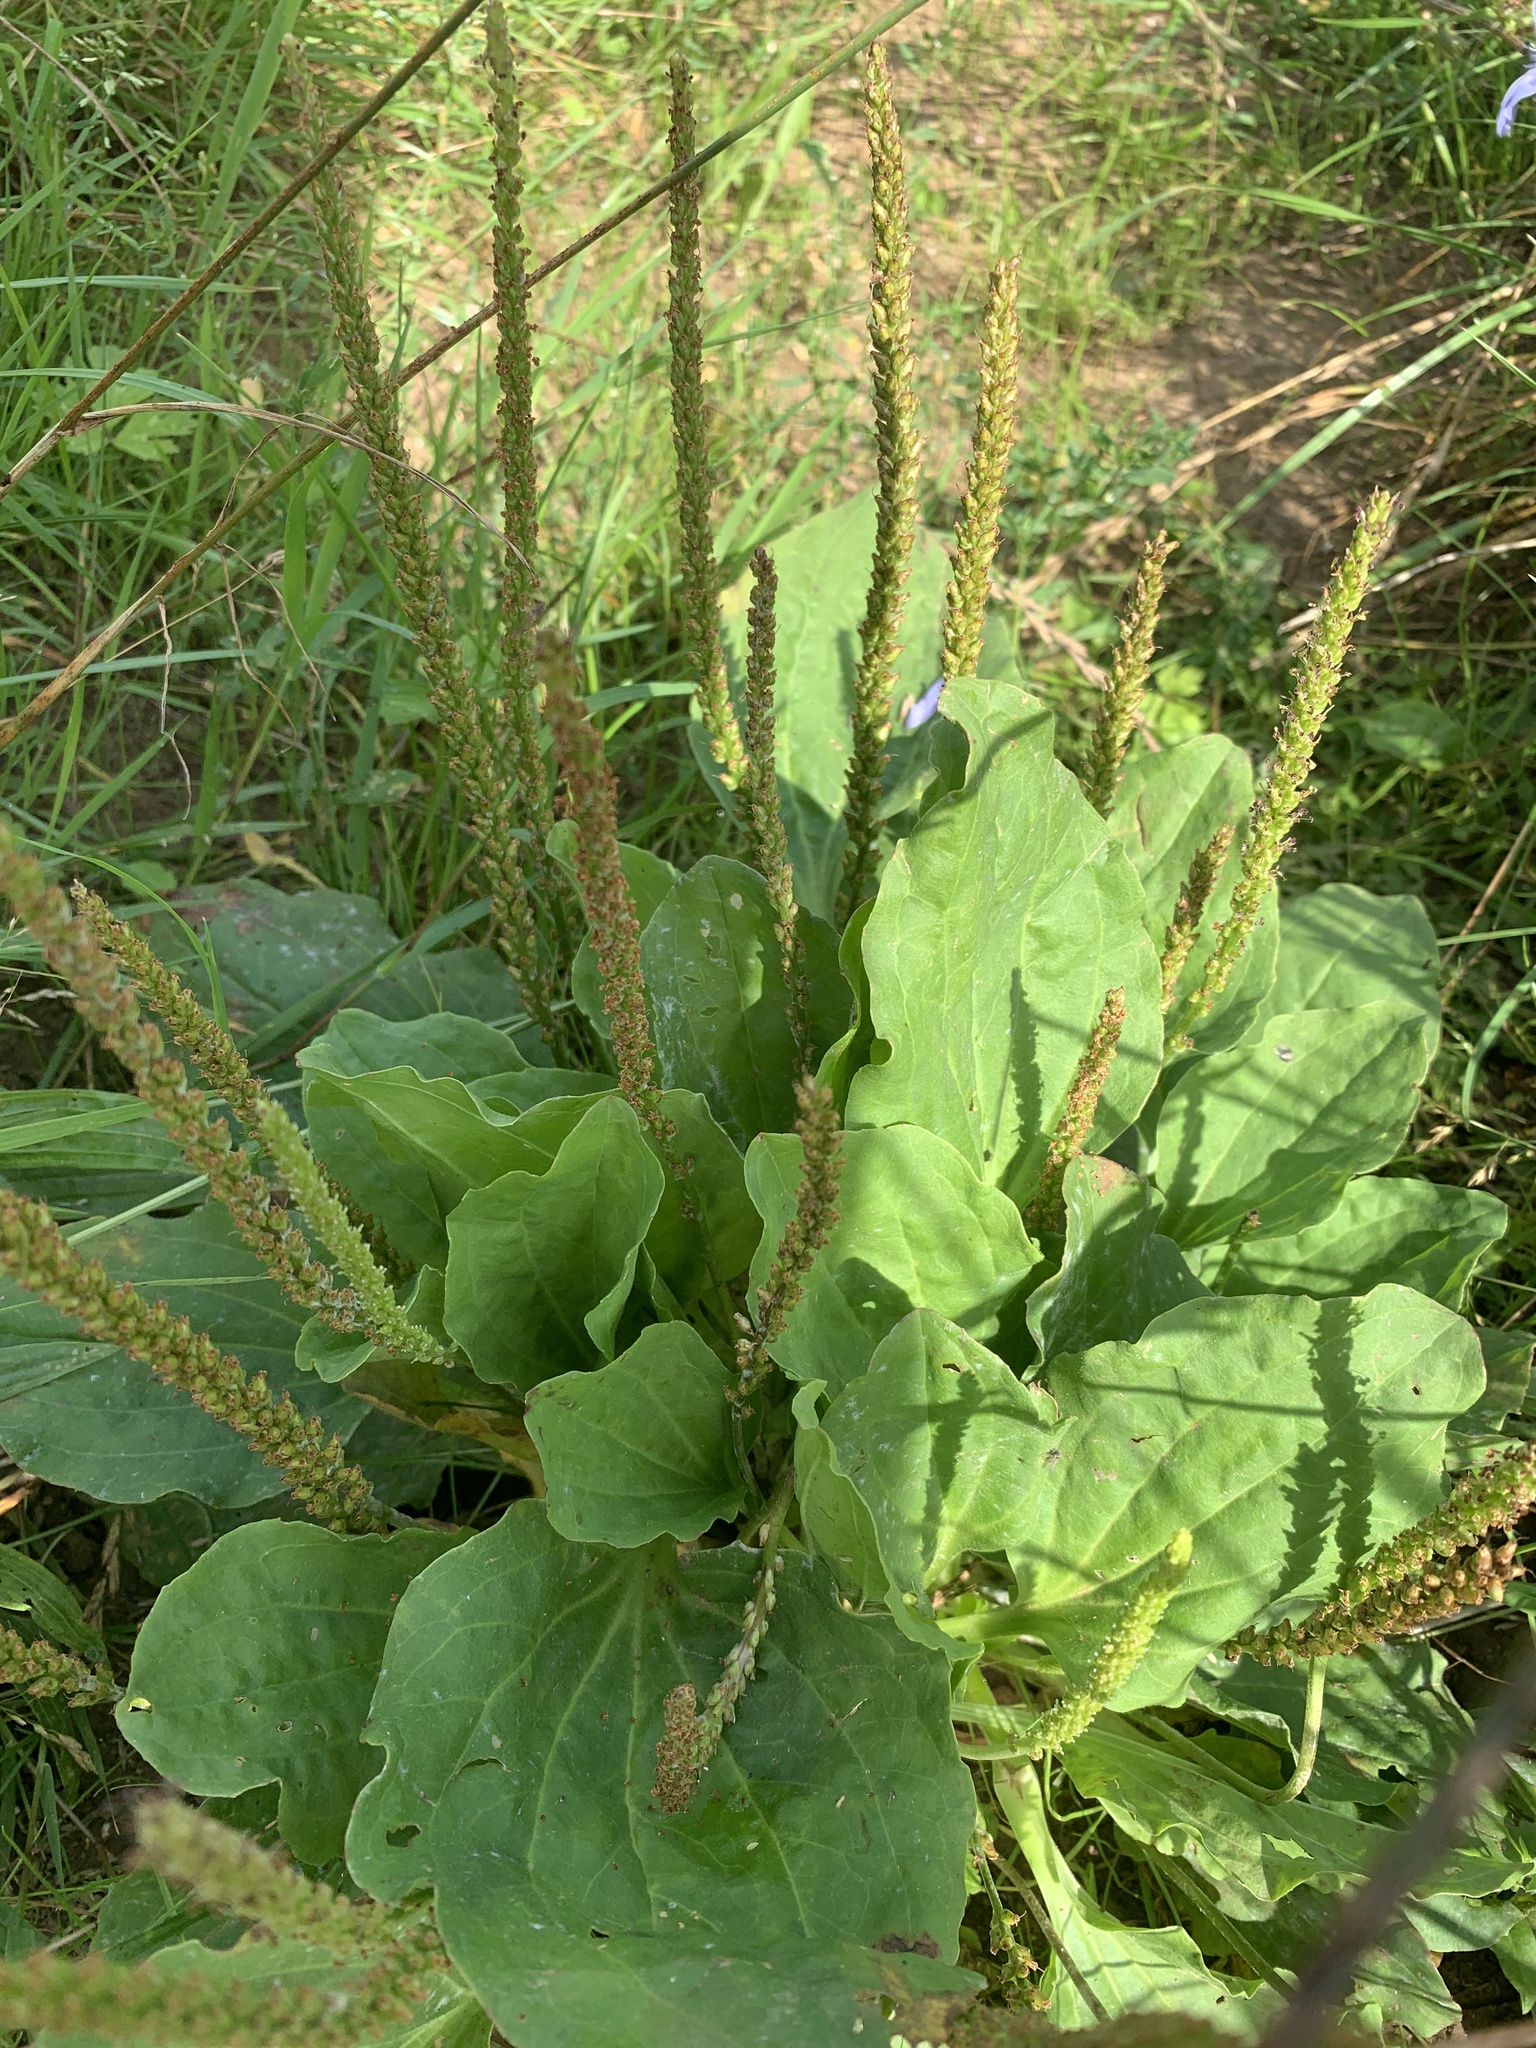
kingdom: Plantae
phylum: Tracheophyta
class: Magnoliopsida
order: Lamiales
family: Plantaginaceae
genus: Plantago
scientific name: Plantago major
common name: Common plantain
